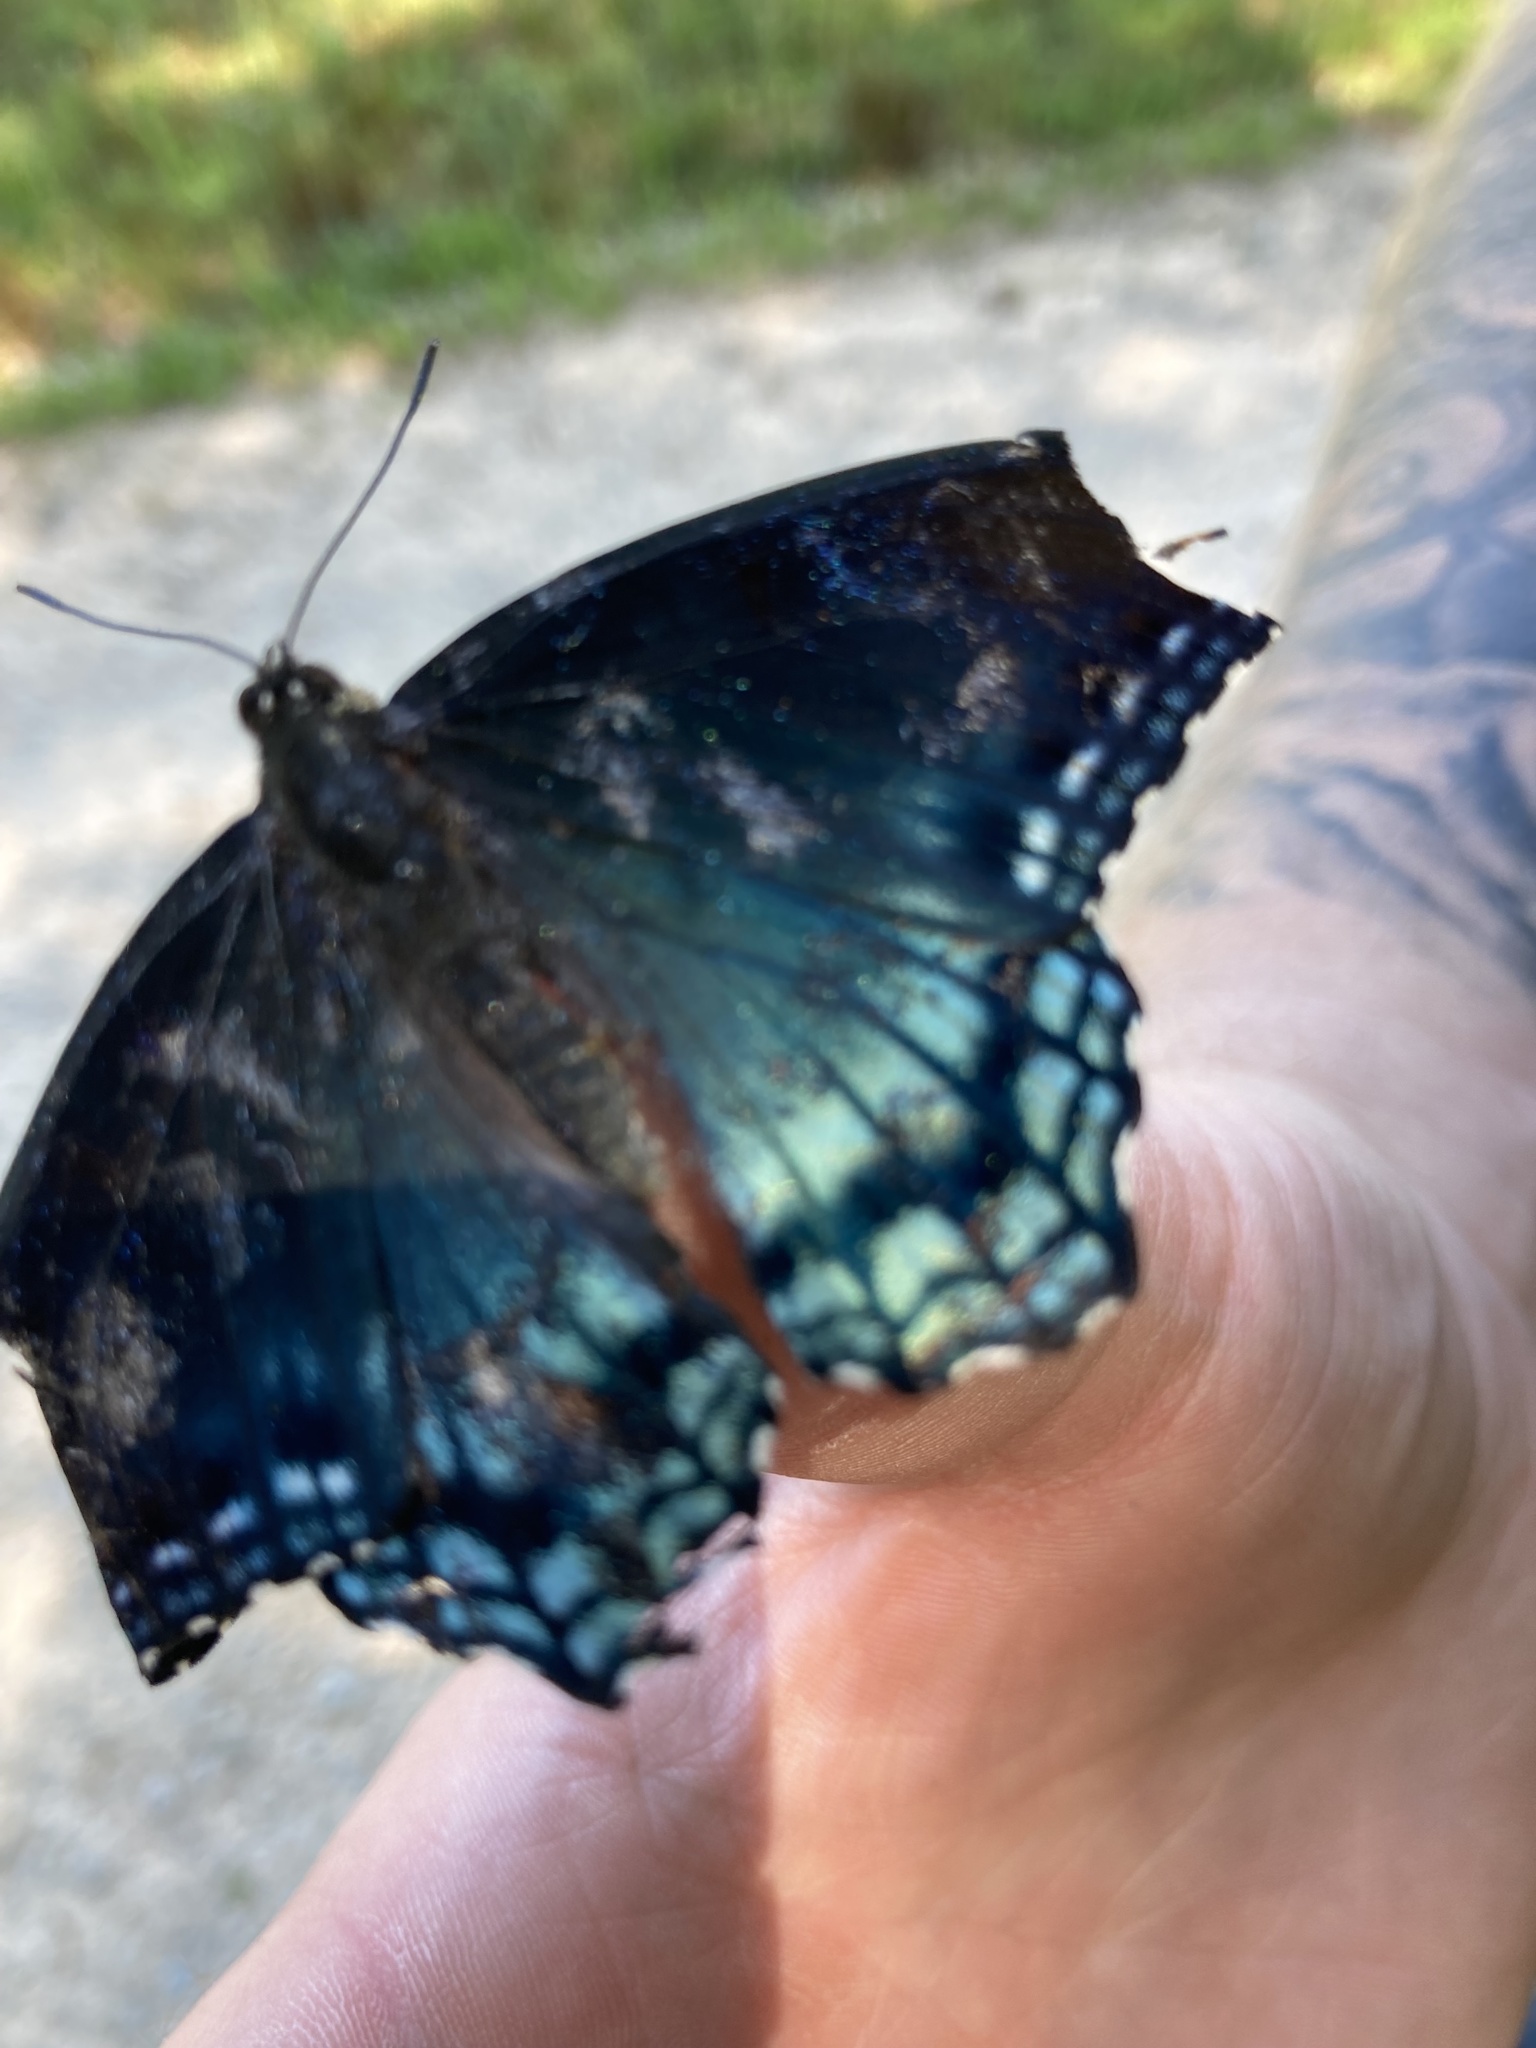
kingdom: Animalia
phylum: Arthropoda
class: Insecta
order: Lepidoptera
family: Nymphalidae
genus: Limenitis
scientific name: Limenitis arthemis
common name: Red-spotted admiral
